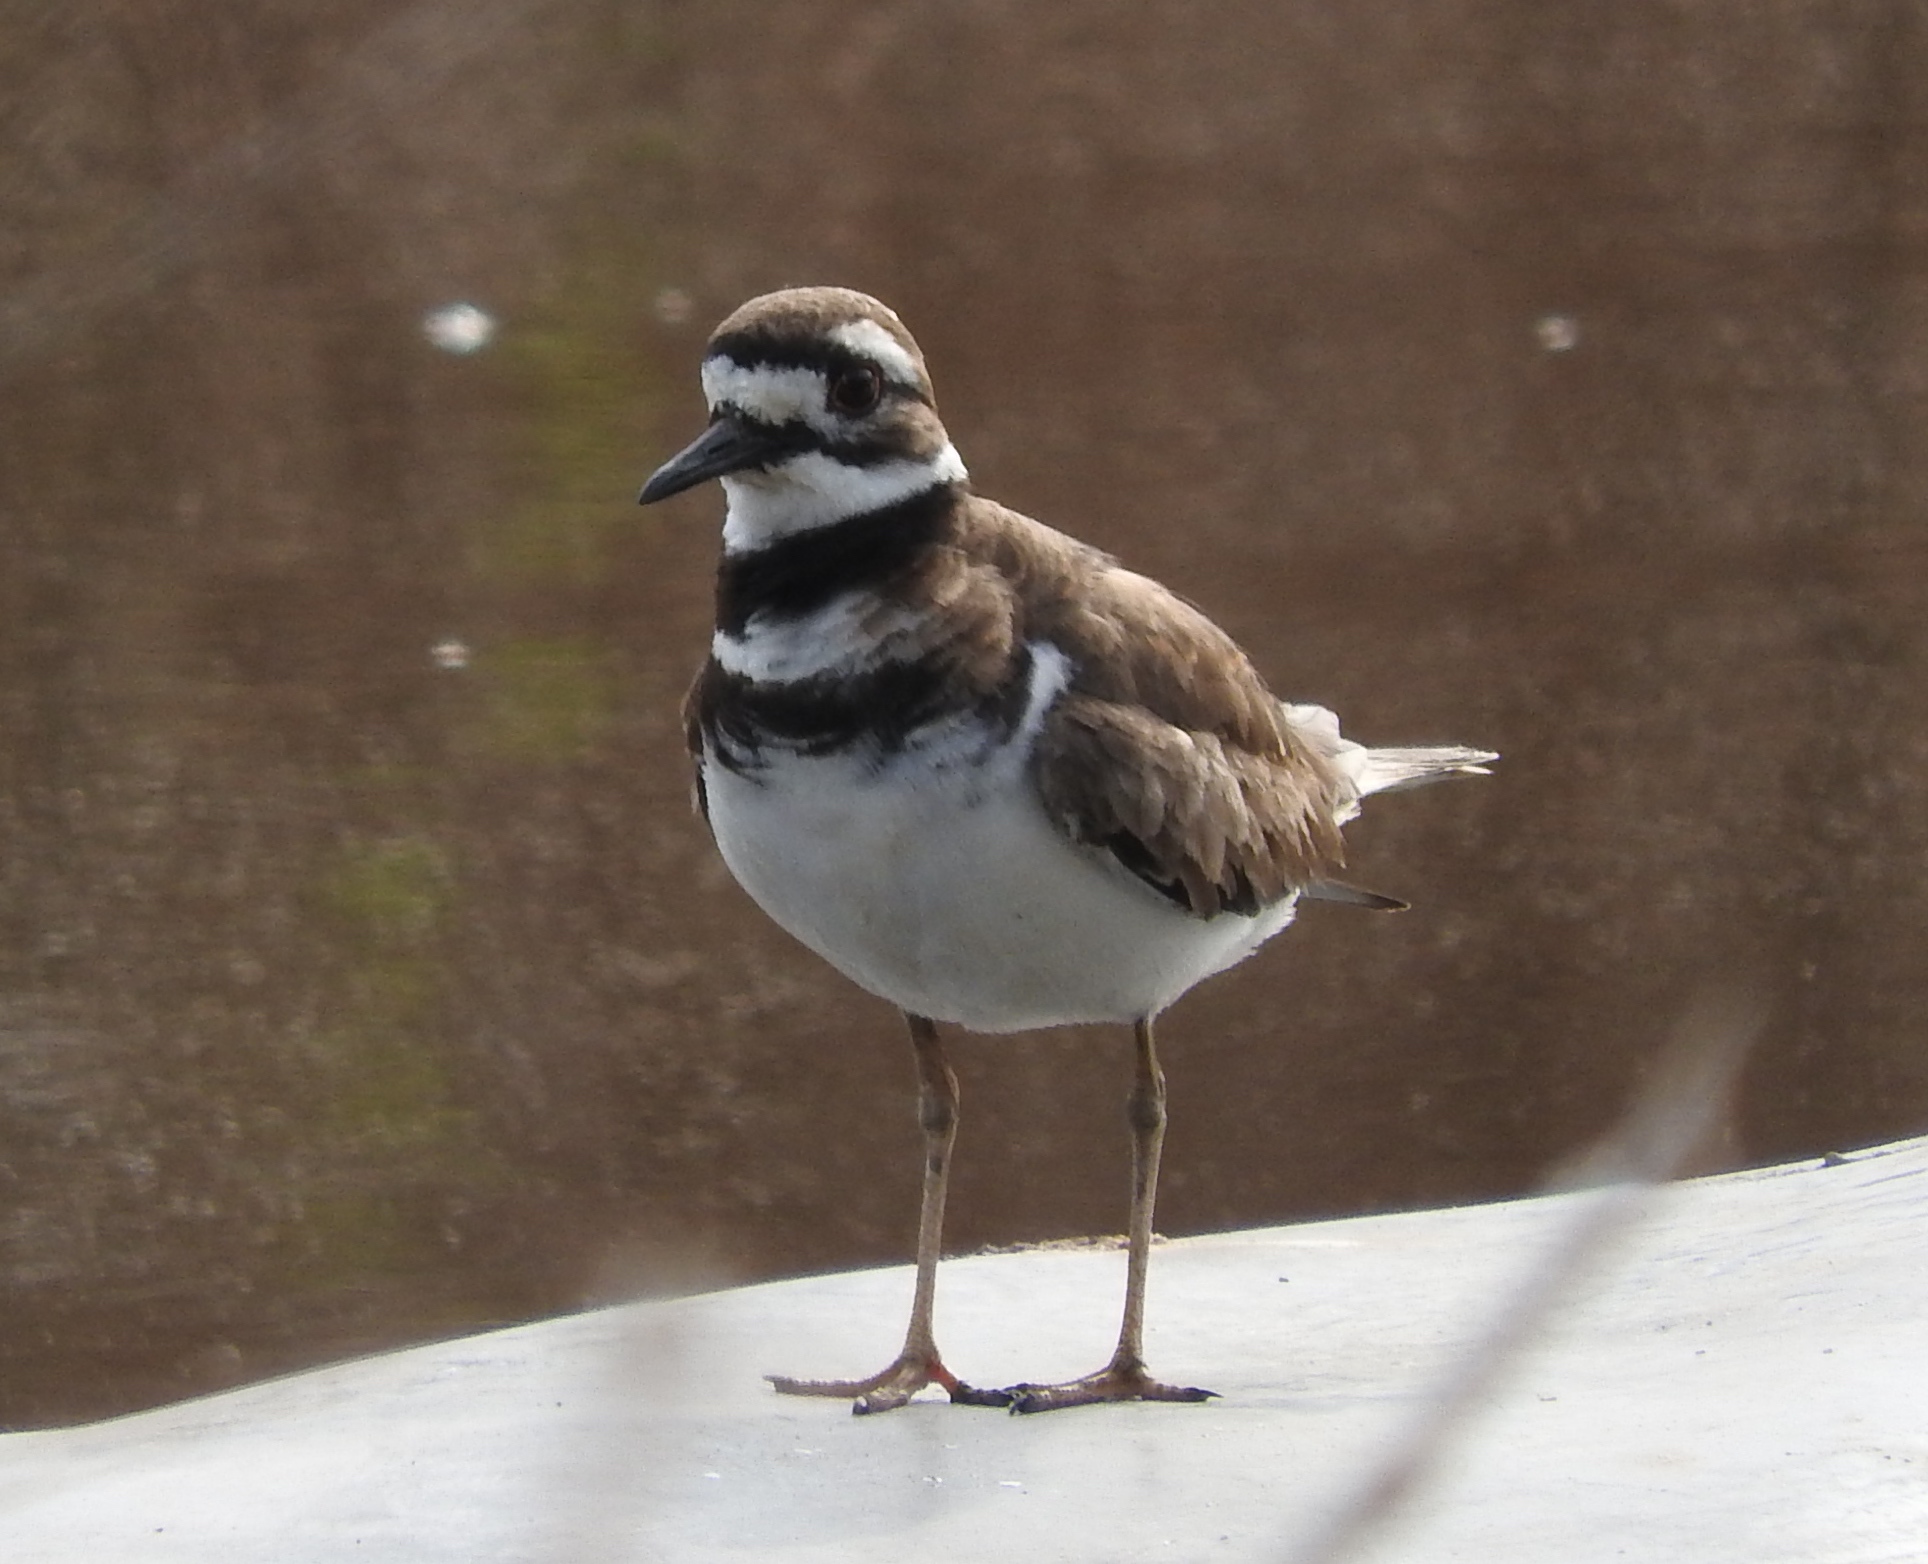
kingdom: Animalia
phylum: Chordata
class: Aves
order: Charadriiformes
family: Charadriidae
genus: Charadrius
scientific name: Charadrius vociferus
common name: Killdeer
